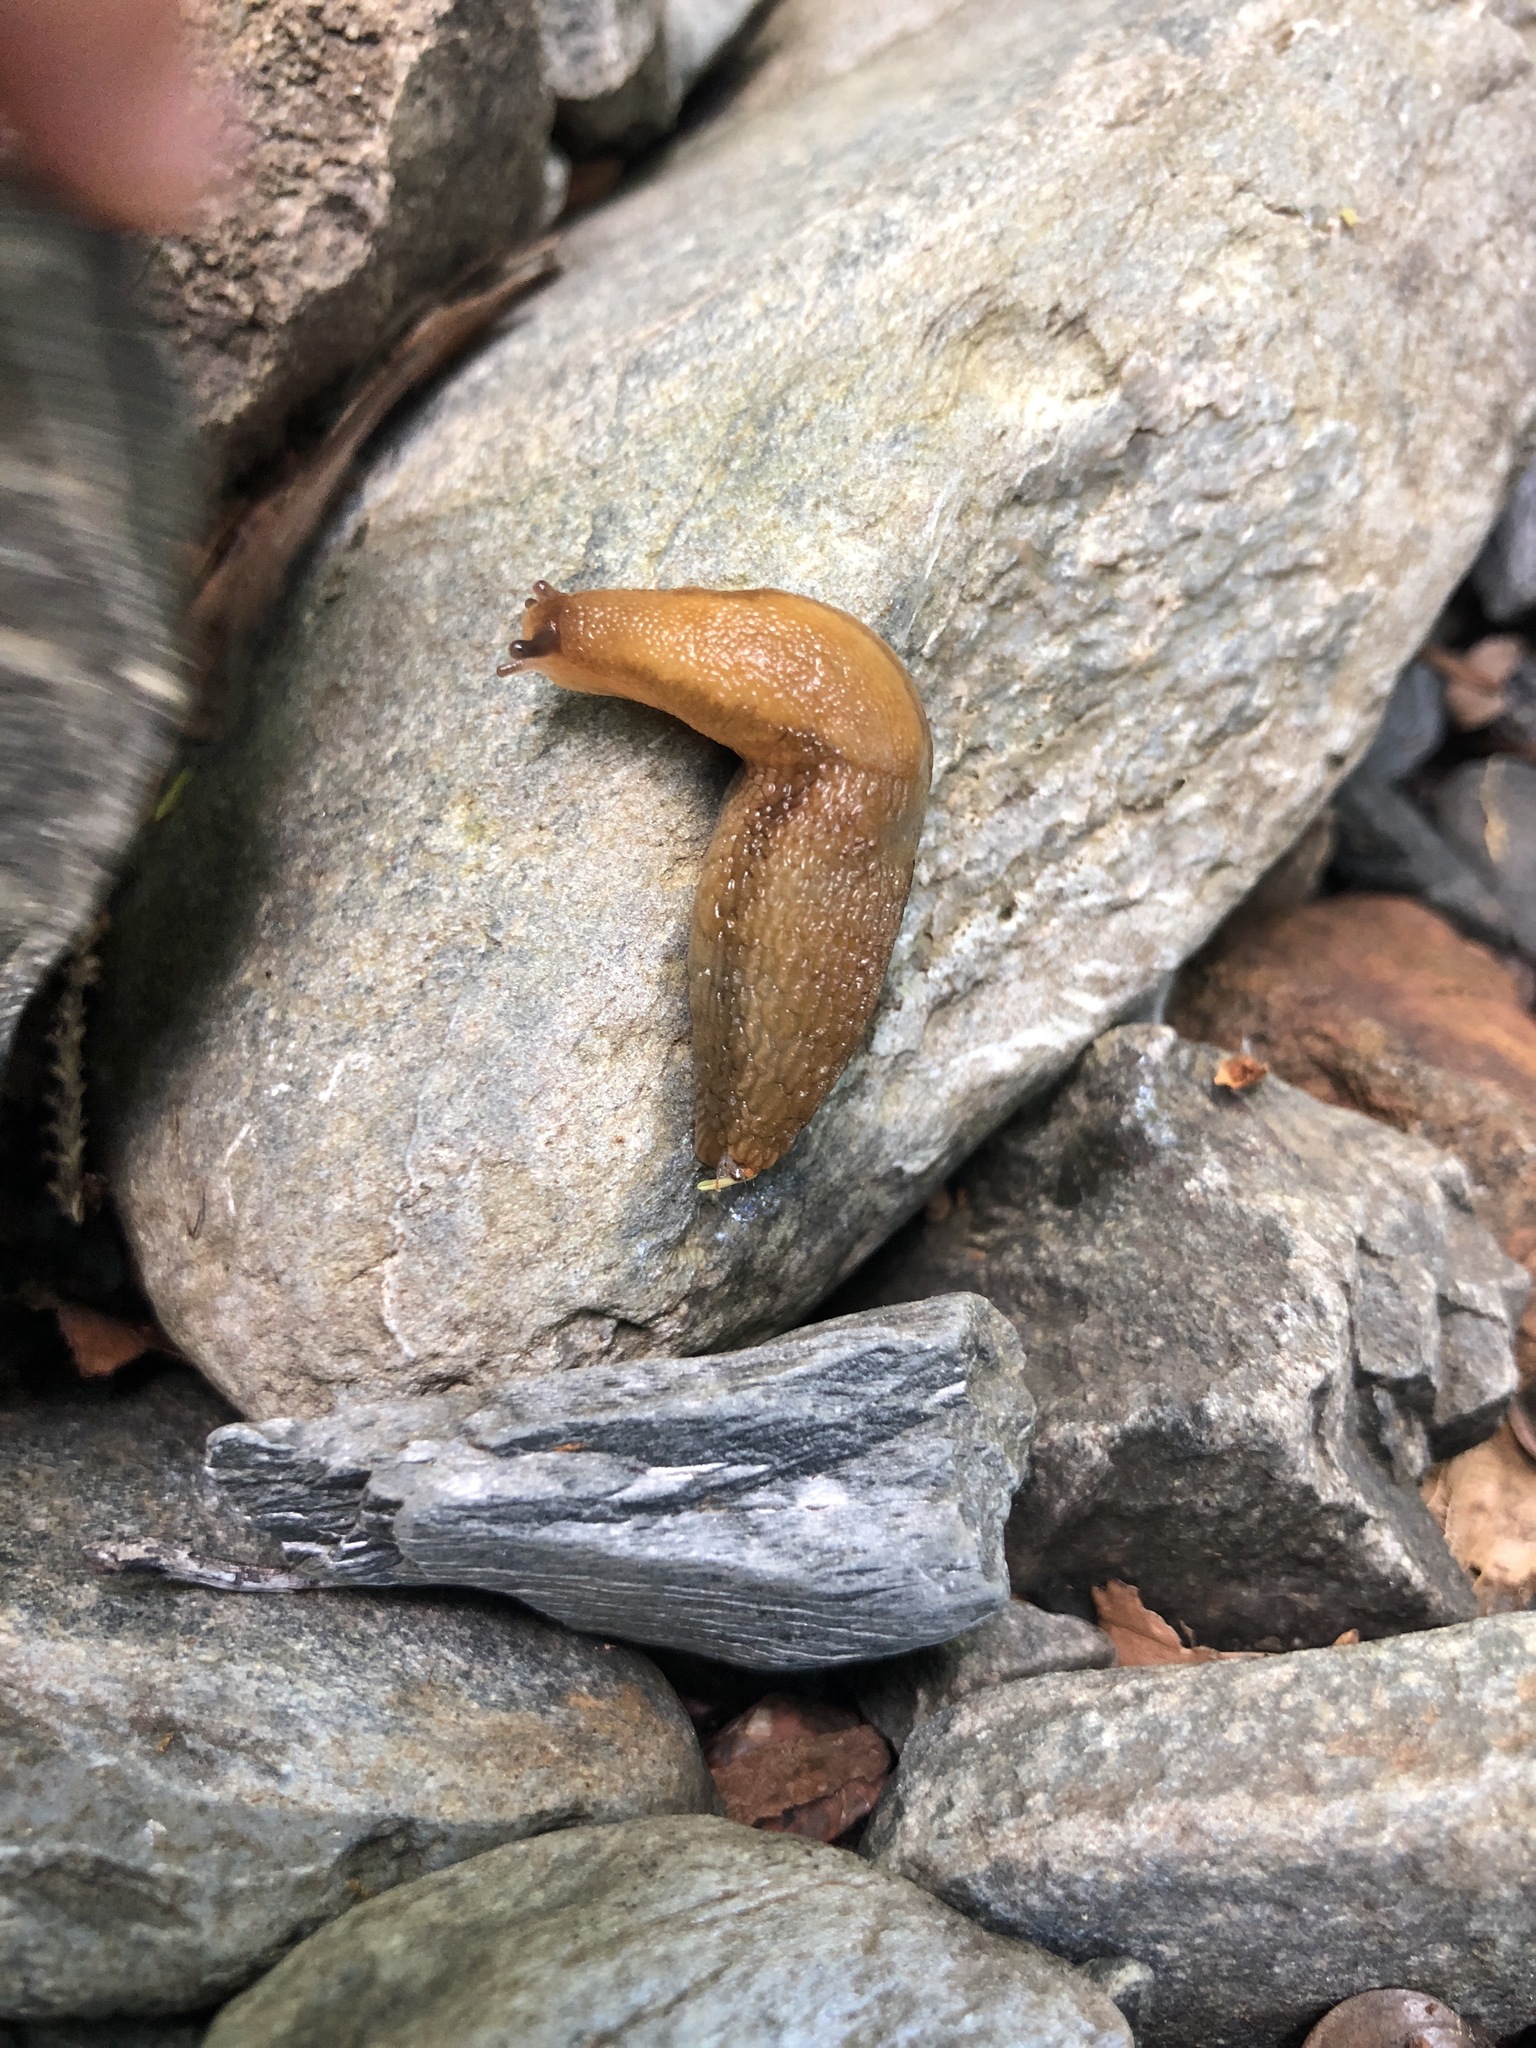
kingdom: Animalia
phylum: Mollusca
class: Gastropoda
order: Stylommatophora
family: Arionidae
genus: Arion
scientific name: Arion subfuscus
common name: Dusky arion
